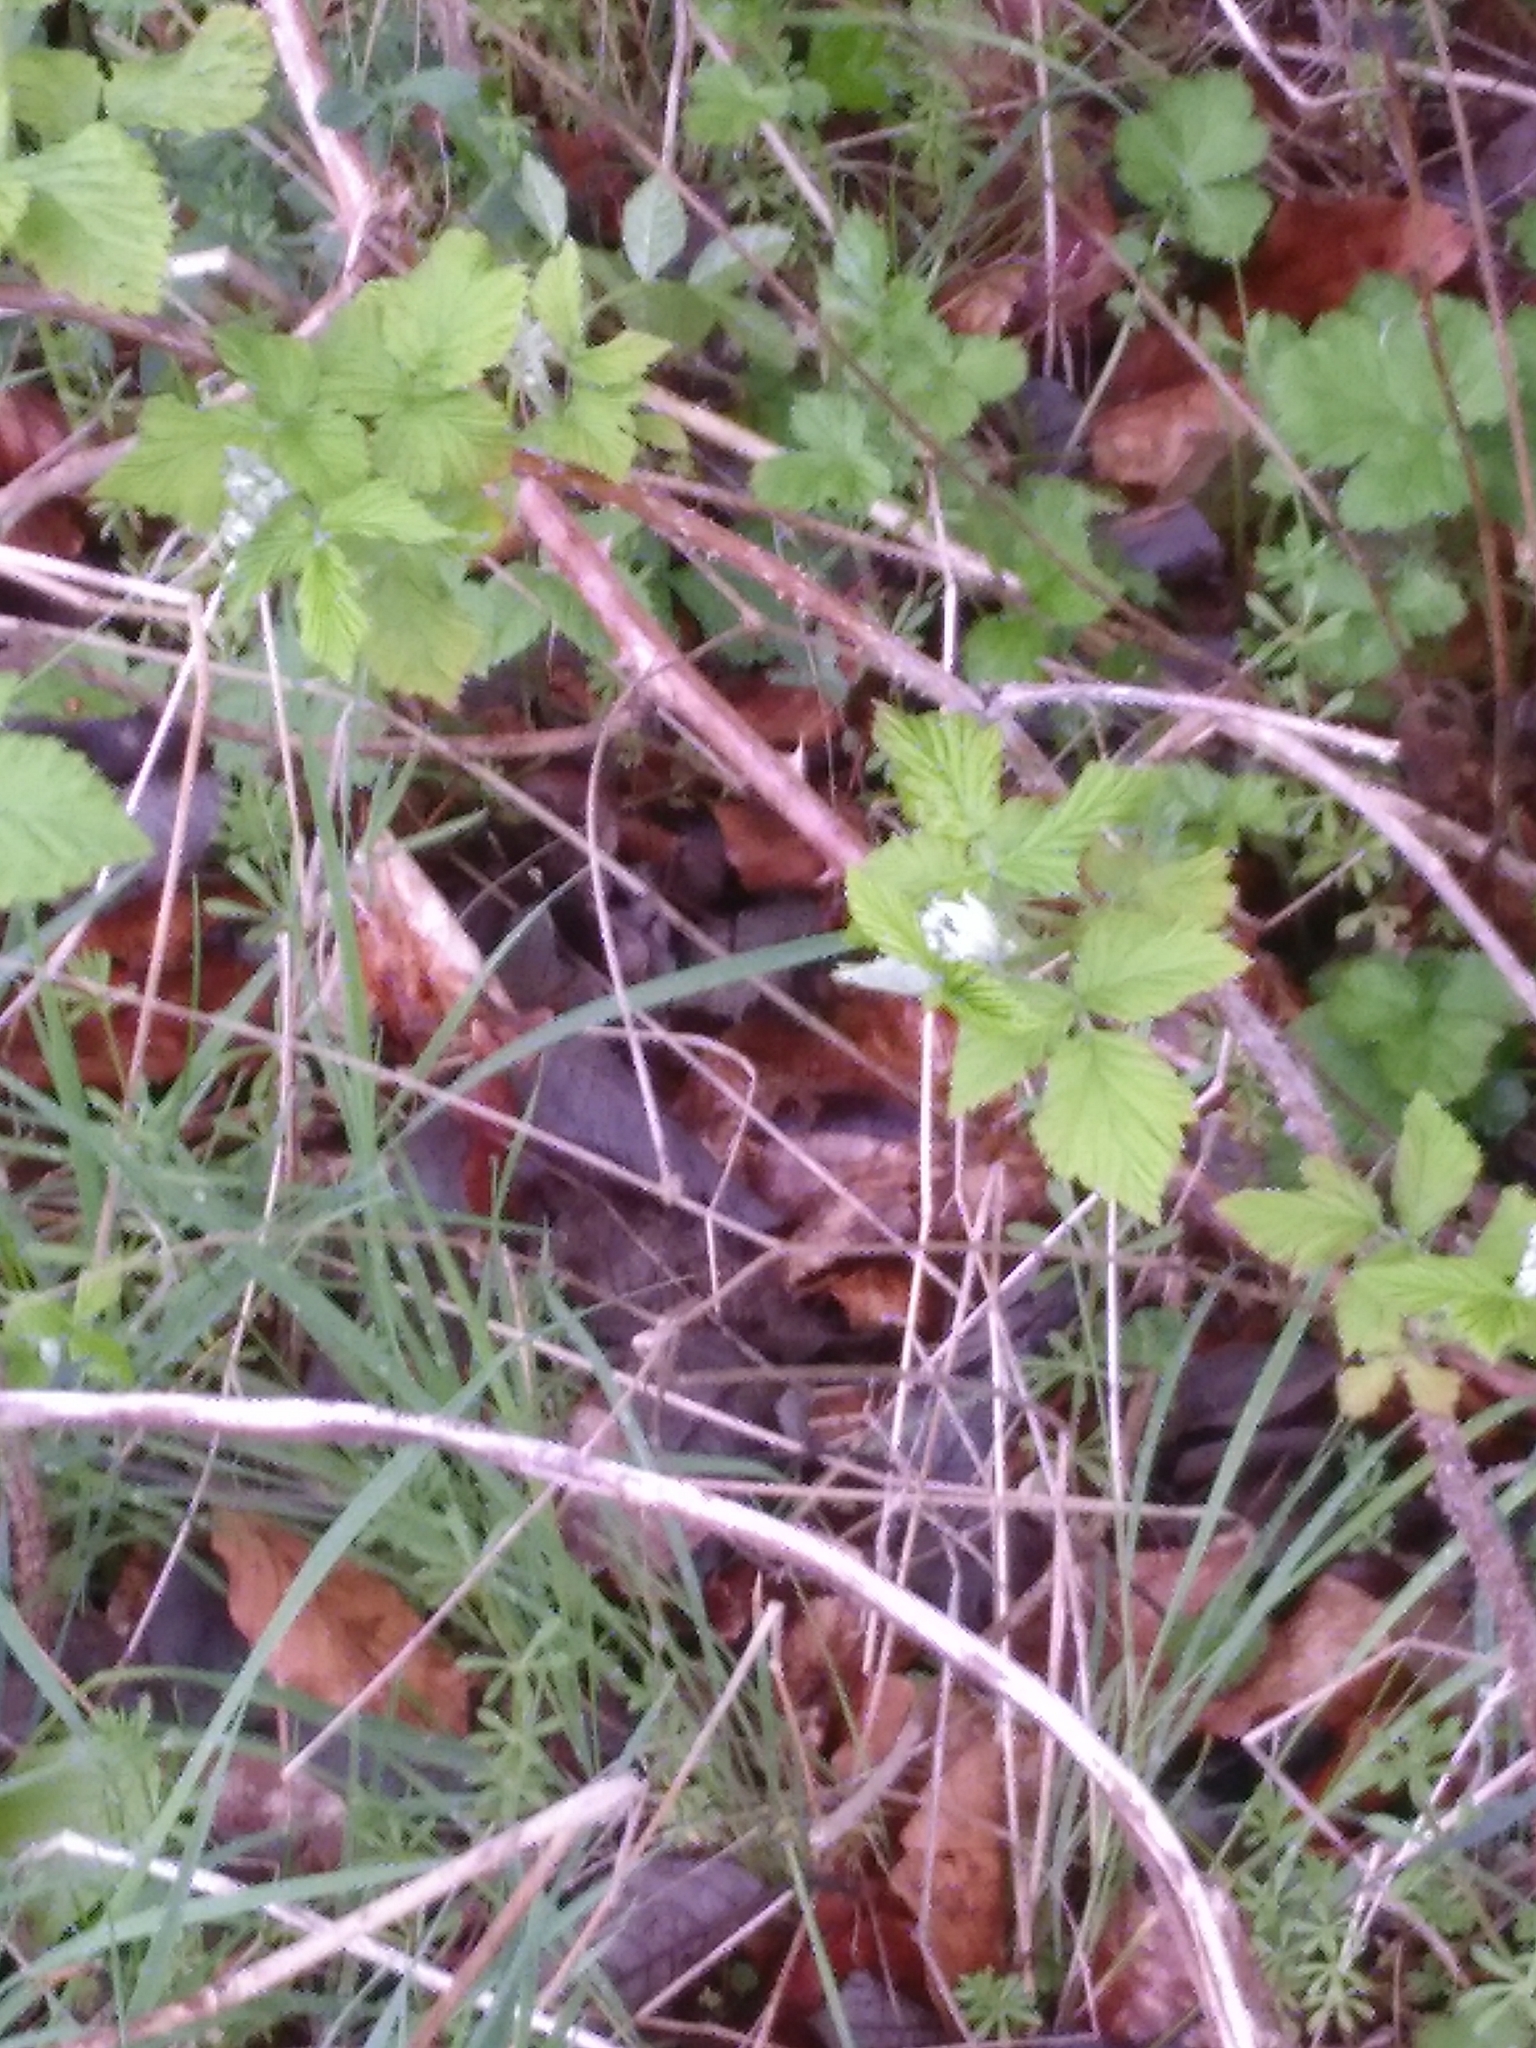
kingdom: Plantae
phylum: Tracheophyta
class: Magnoliopsida
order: Rosales
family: Rosaceae
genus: Rubus
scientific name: Rubus idaeus
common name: Raspberry
